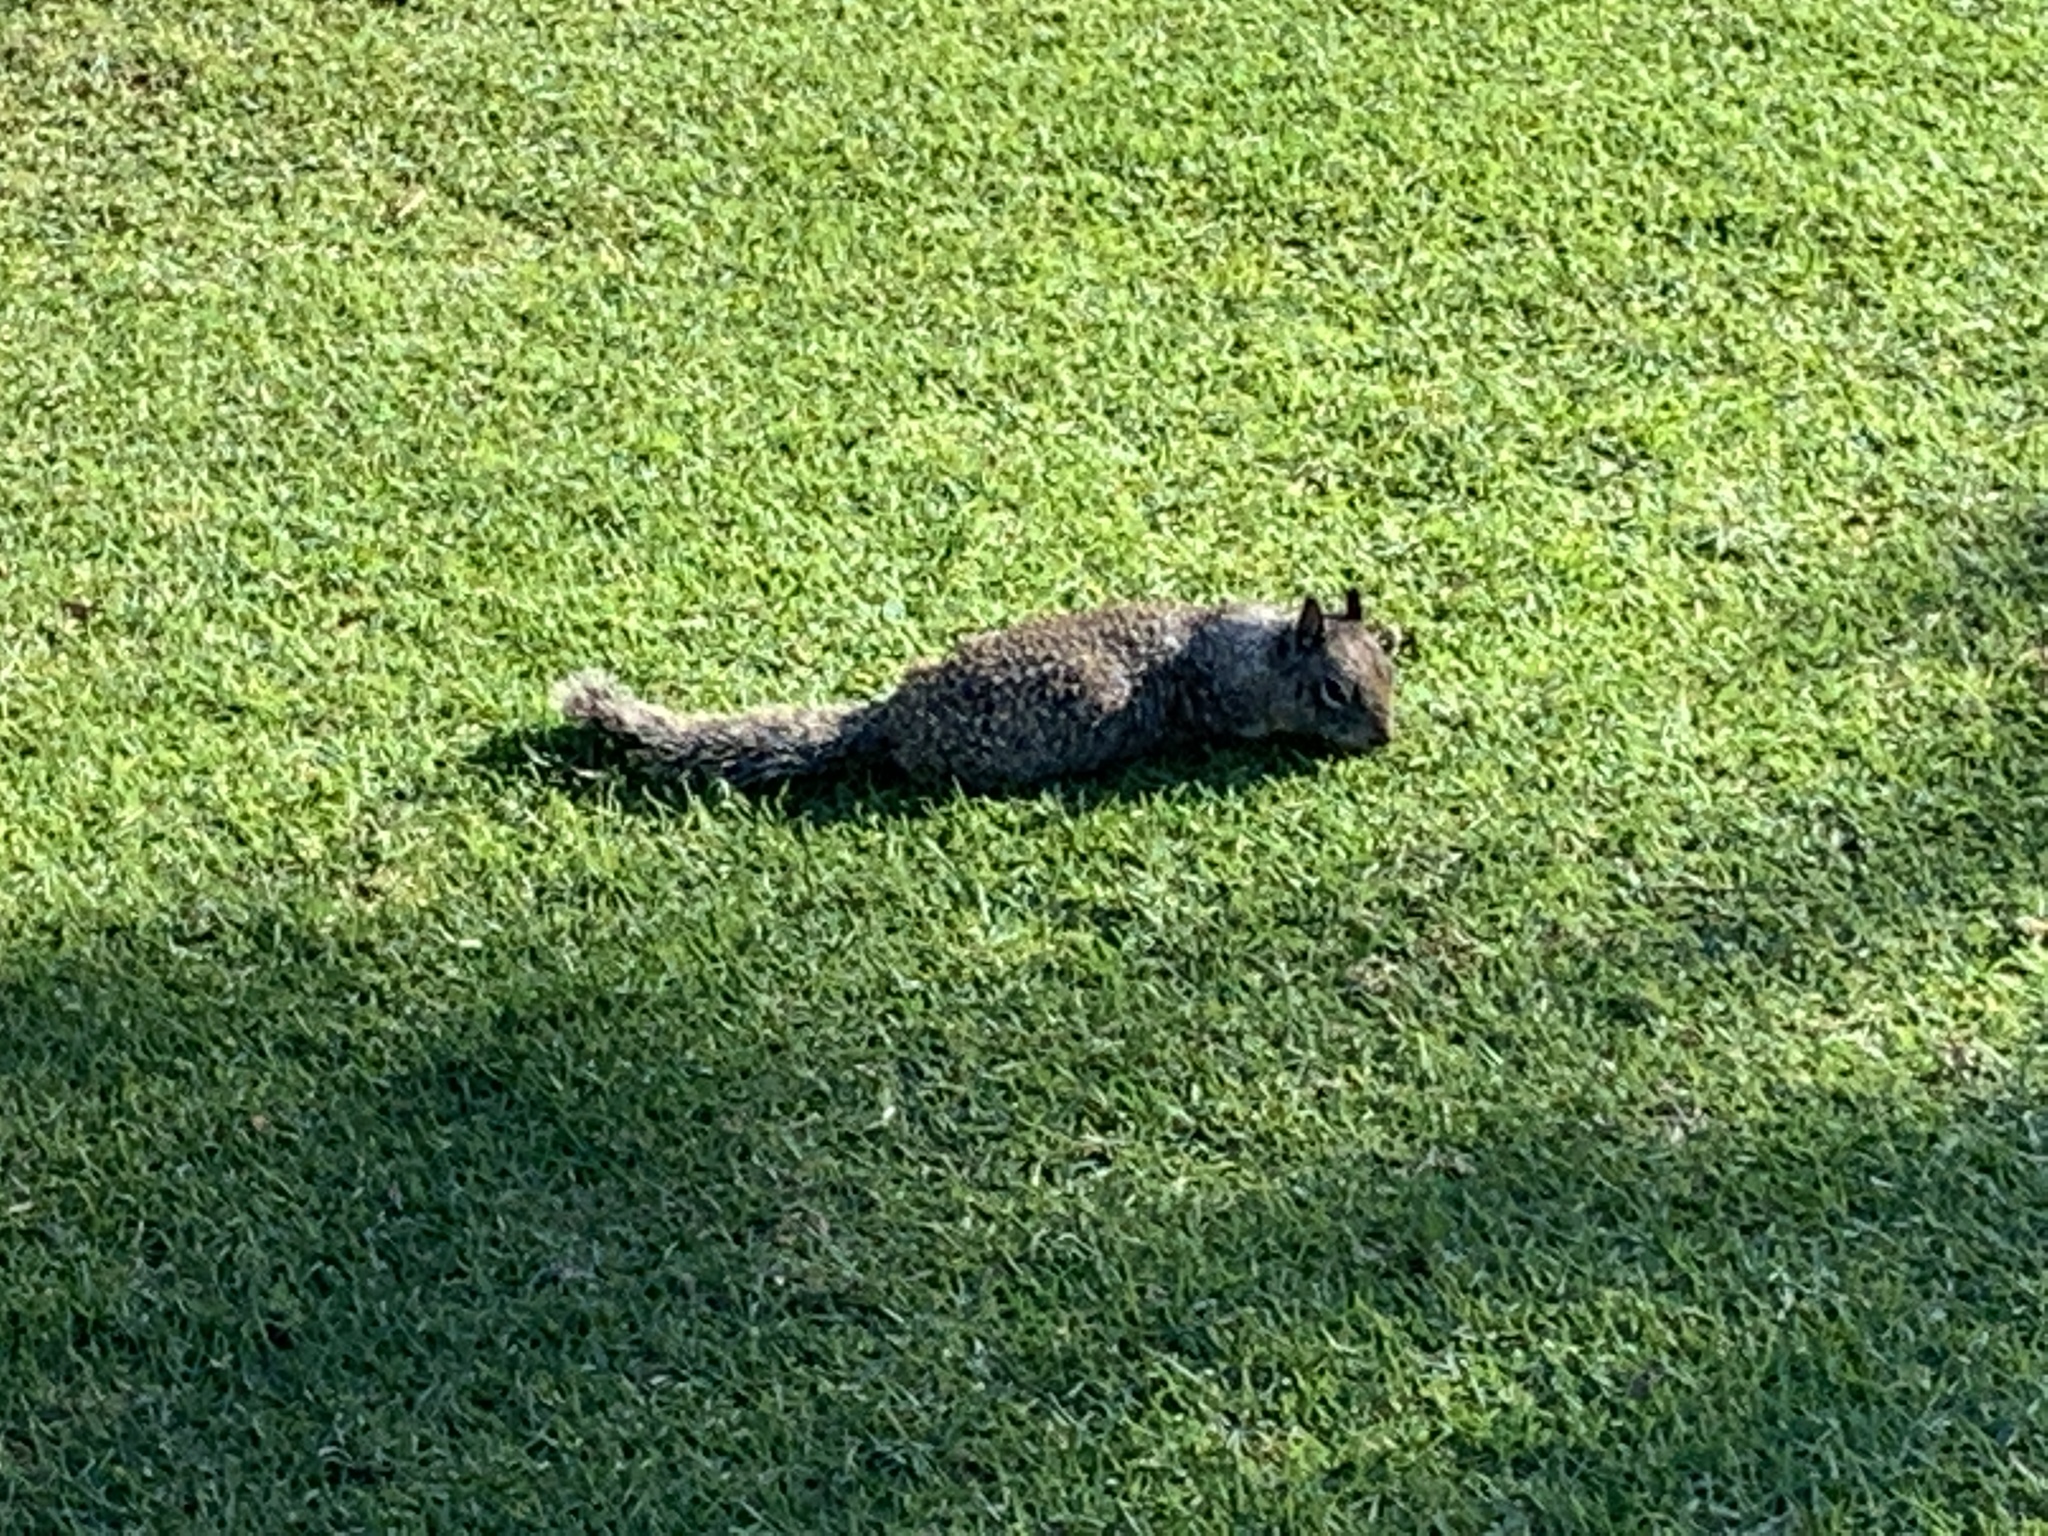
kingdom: Animalia
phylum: Chordata
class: Mammalia
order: Rodentia
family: Sciuridae
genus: Otospermophilus
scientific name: Otospermophilus beecheyi
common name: California ground squirrel
